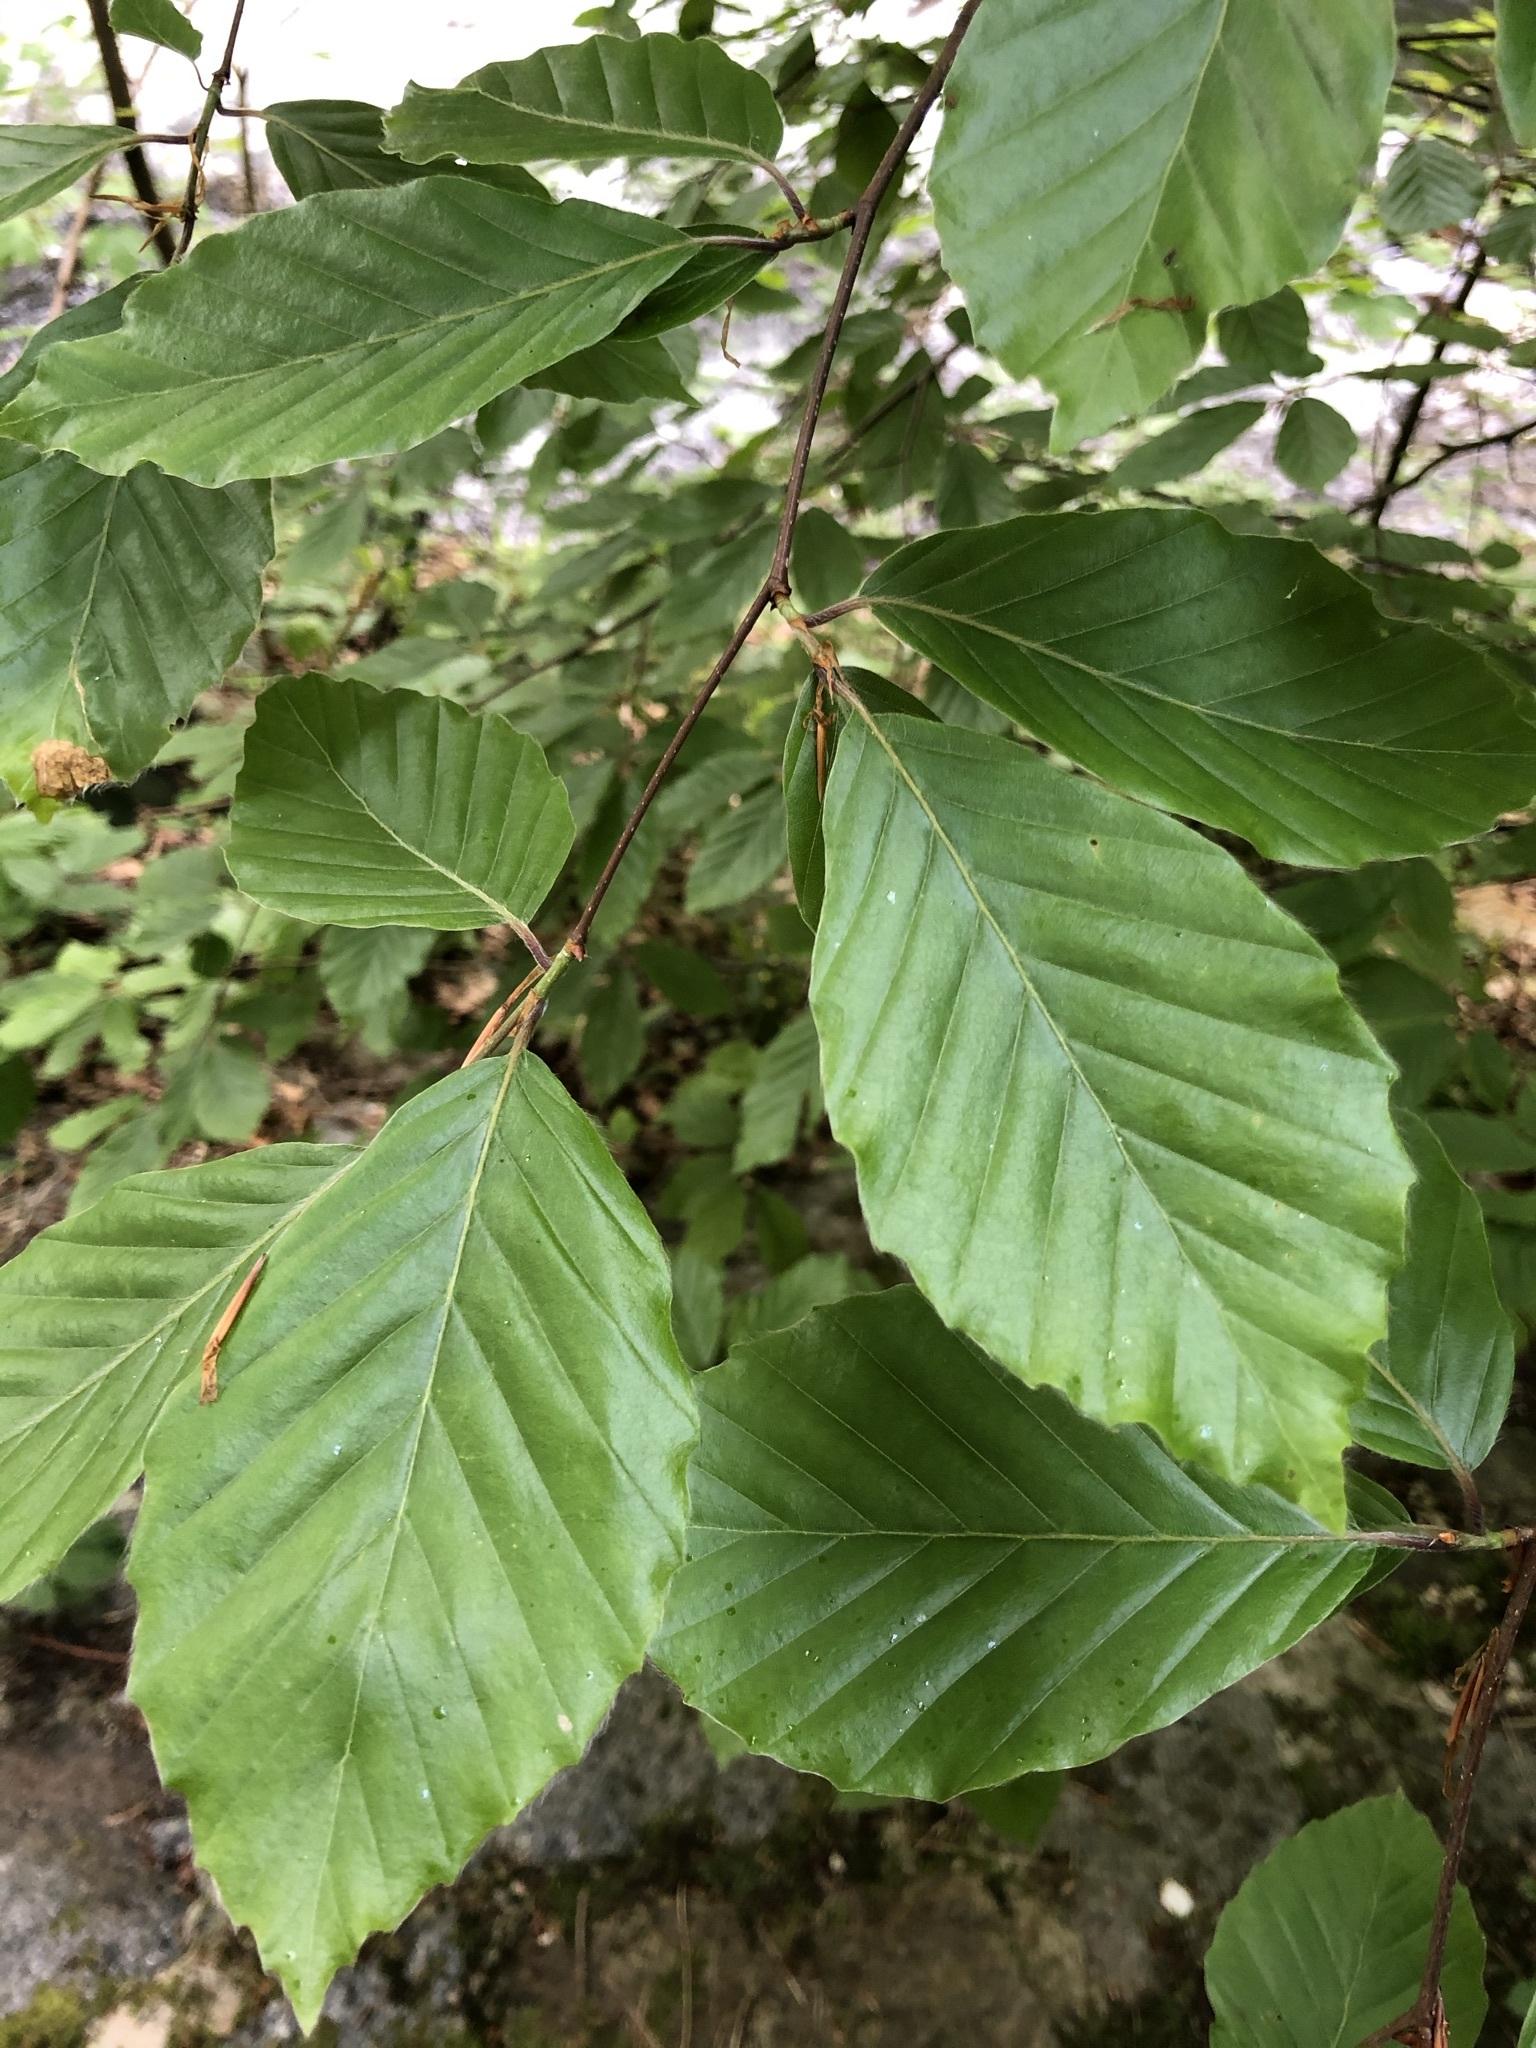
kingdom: Plantae
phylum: Tracheophyta
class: Magnoliopsida
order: Fagales
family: Fagaceae
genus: Fagus
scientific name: Fagus sylvatica
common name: Beech
